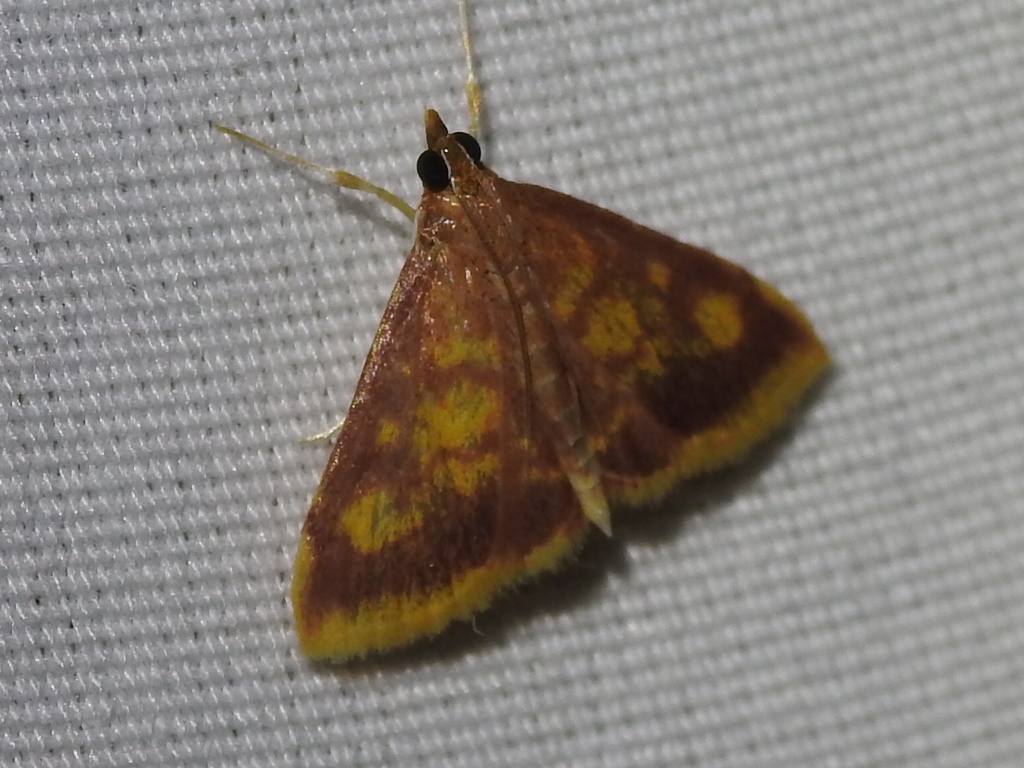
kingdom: Animalia
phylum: Arthropoda
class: Insecta
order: Lepidoptera
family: Crambidae
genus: Pyrausta
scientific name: Pyrausta acrionalis
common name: Mint-loving pyrausta moth
